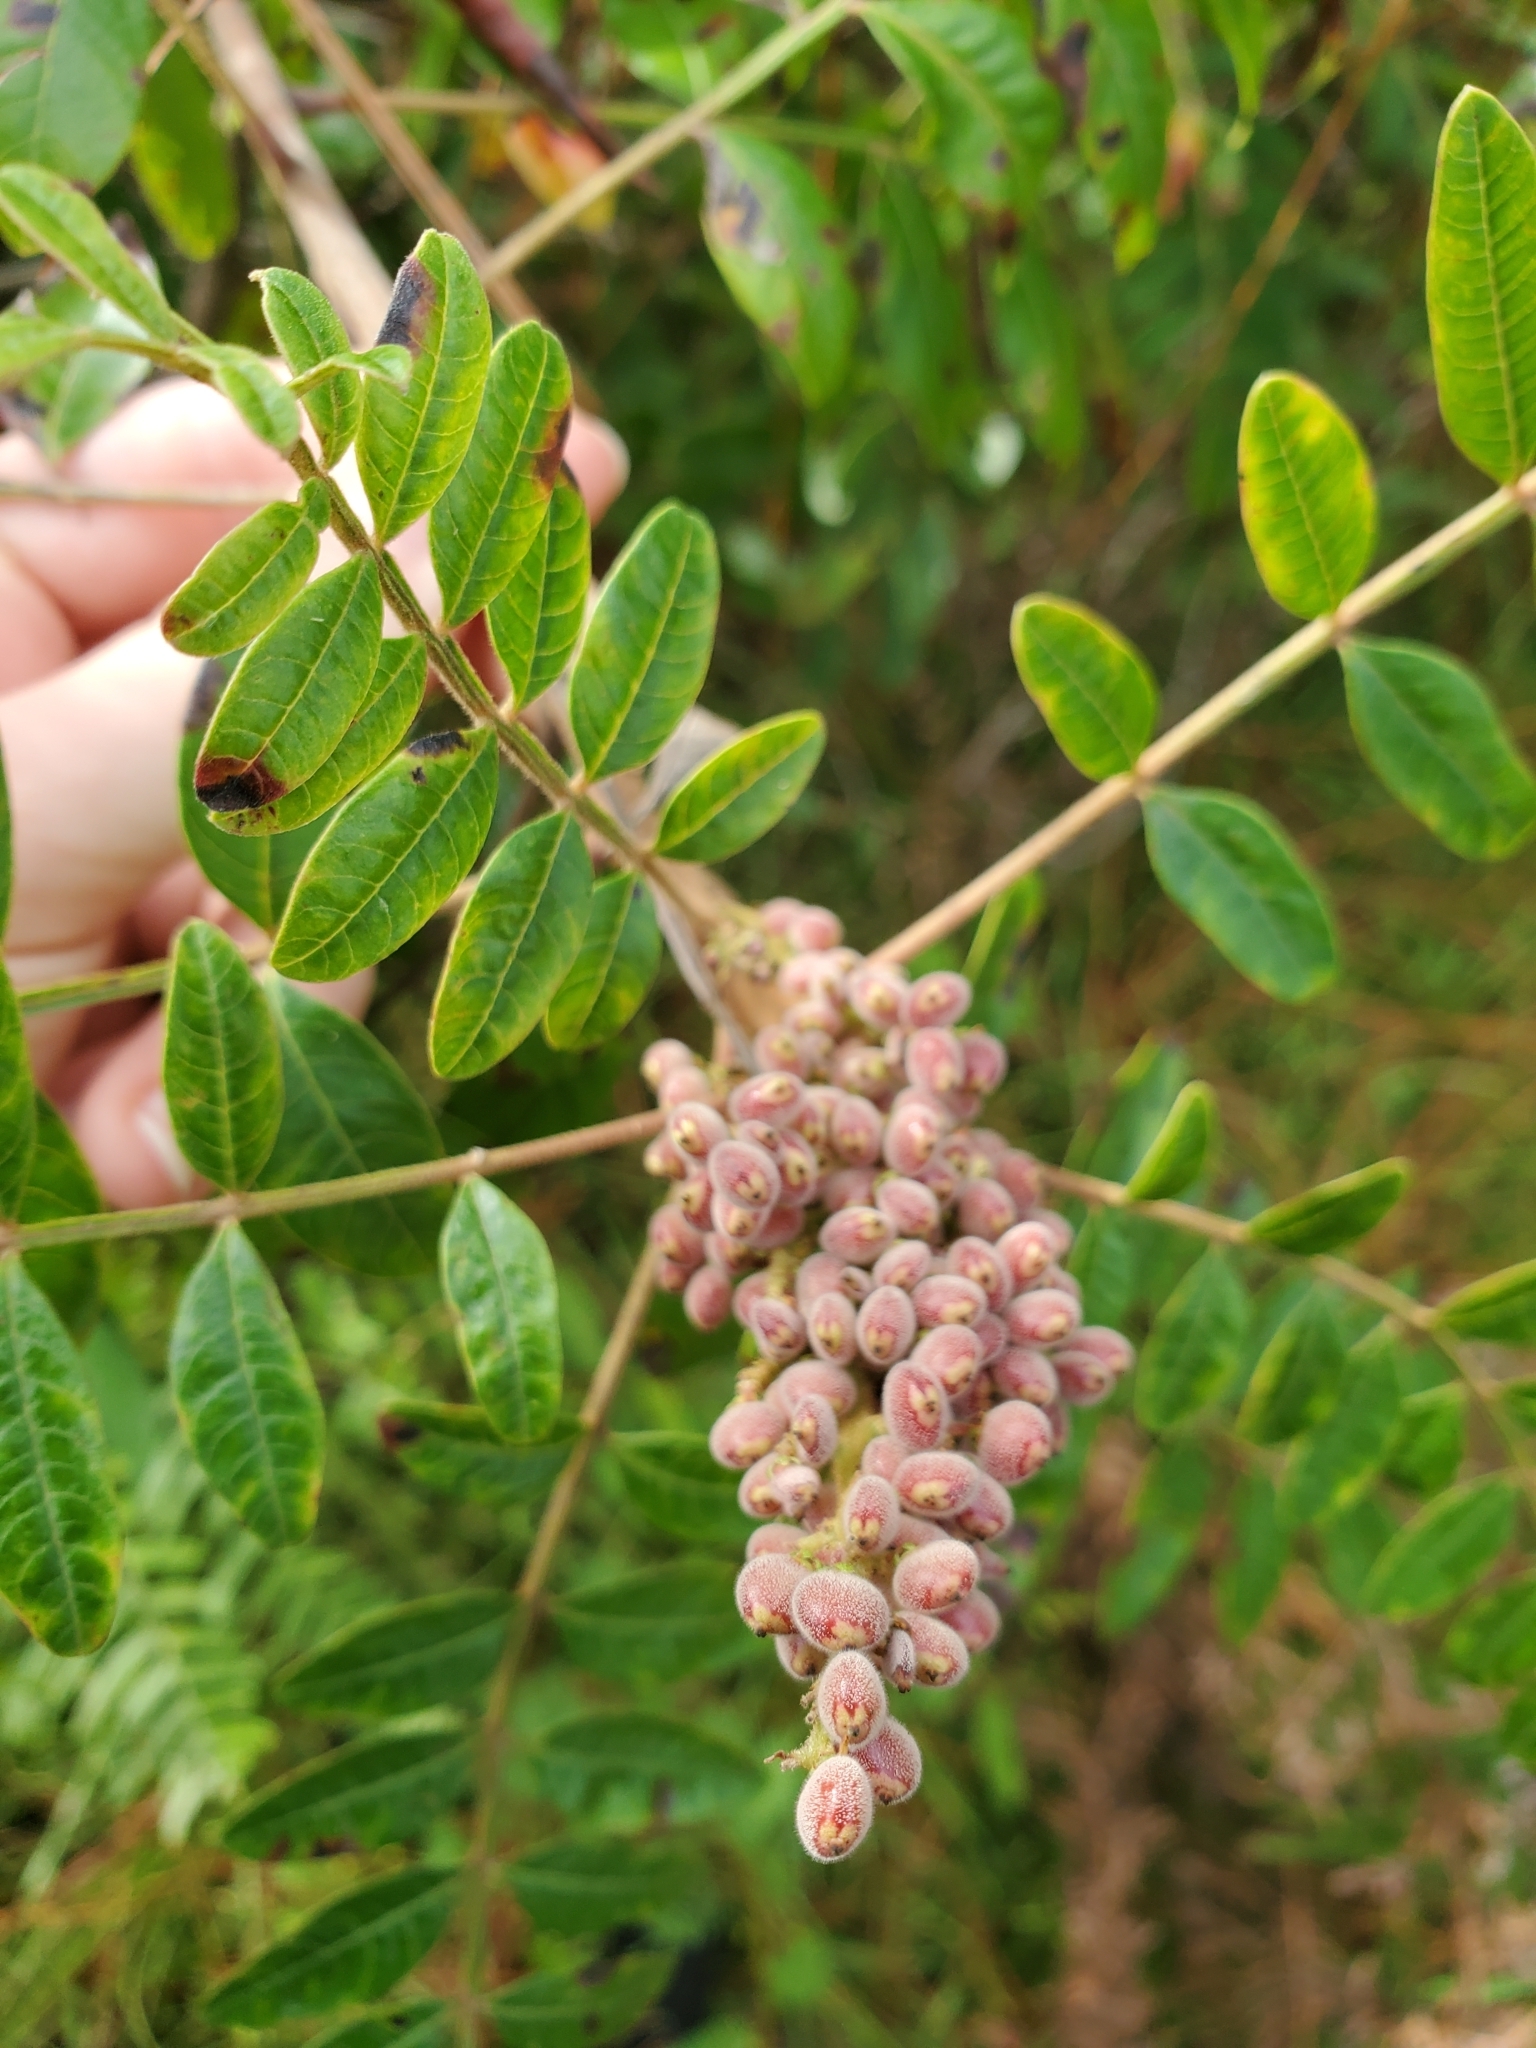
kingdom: Plantae
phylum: Tracheophyta
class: Magnoliopsida
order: Sapindales
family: Anacardiaceae
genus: Rhus
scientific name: Rhus copallina
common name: Shining sumac
